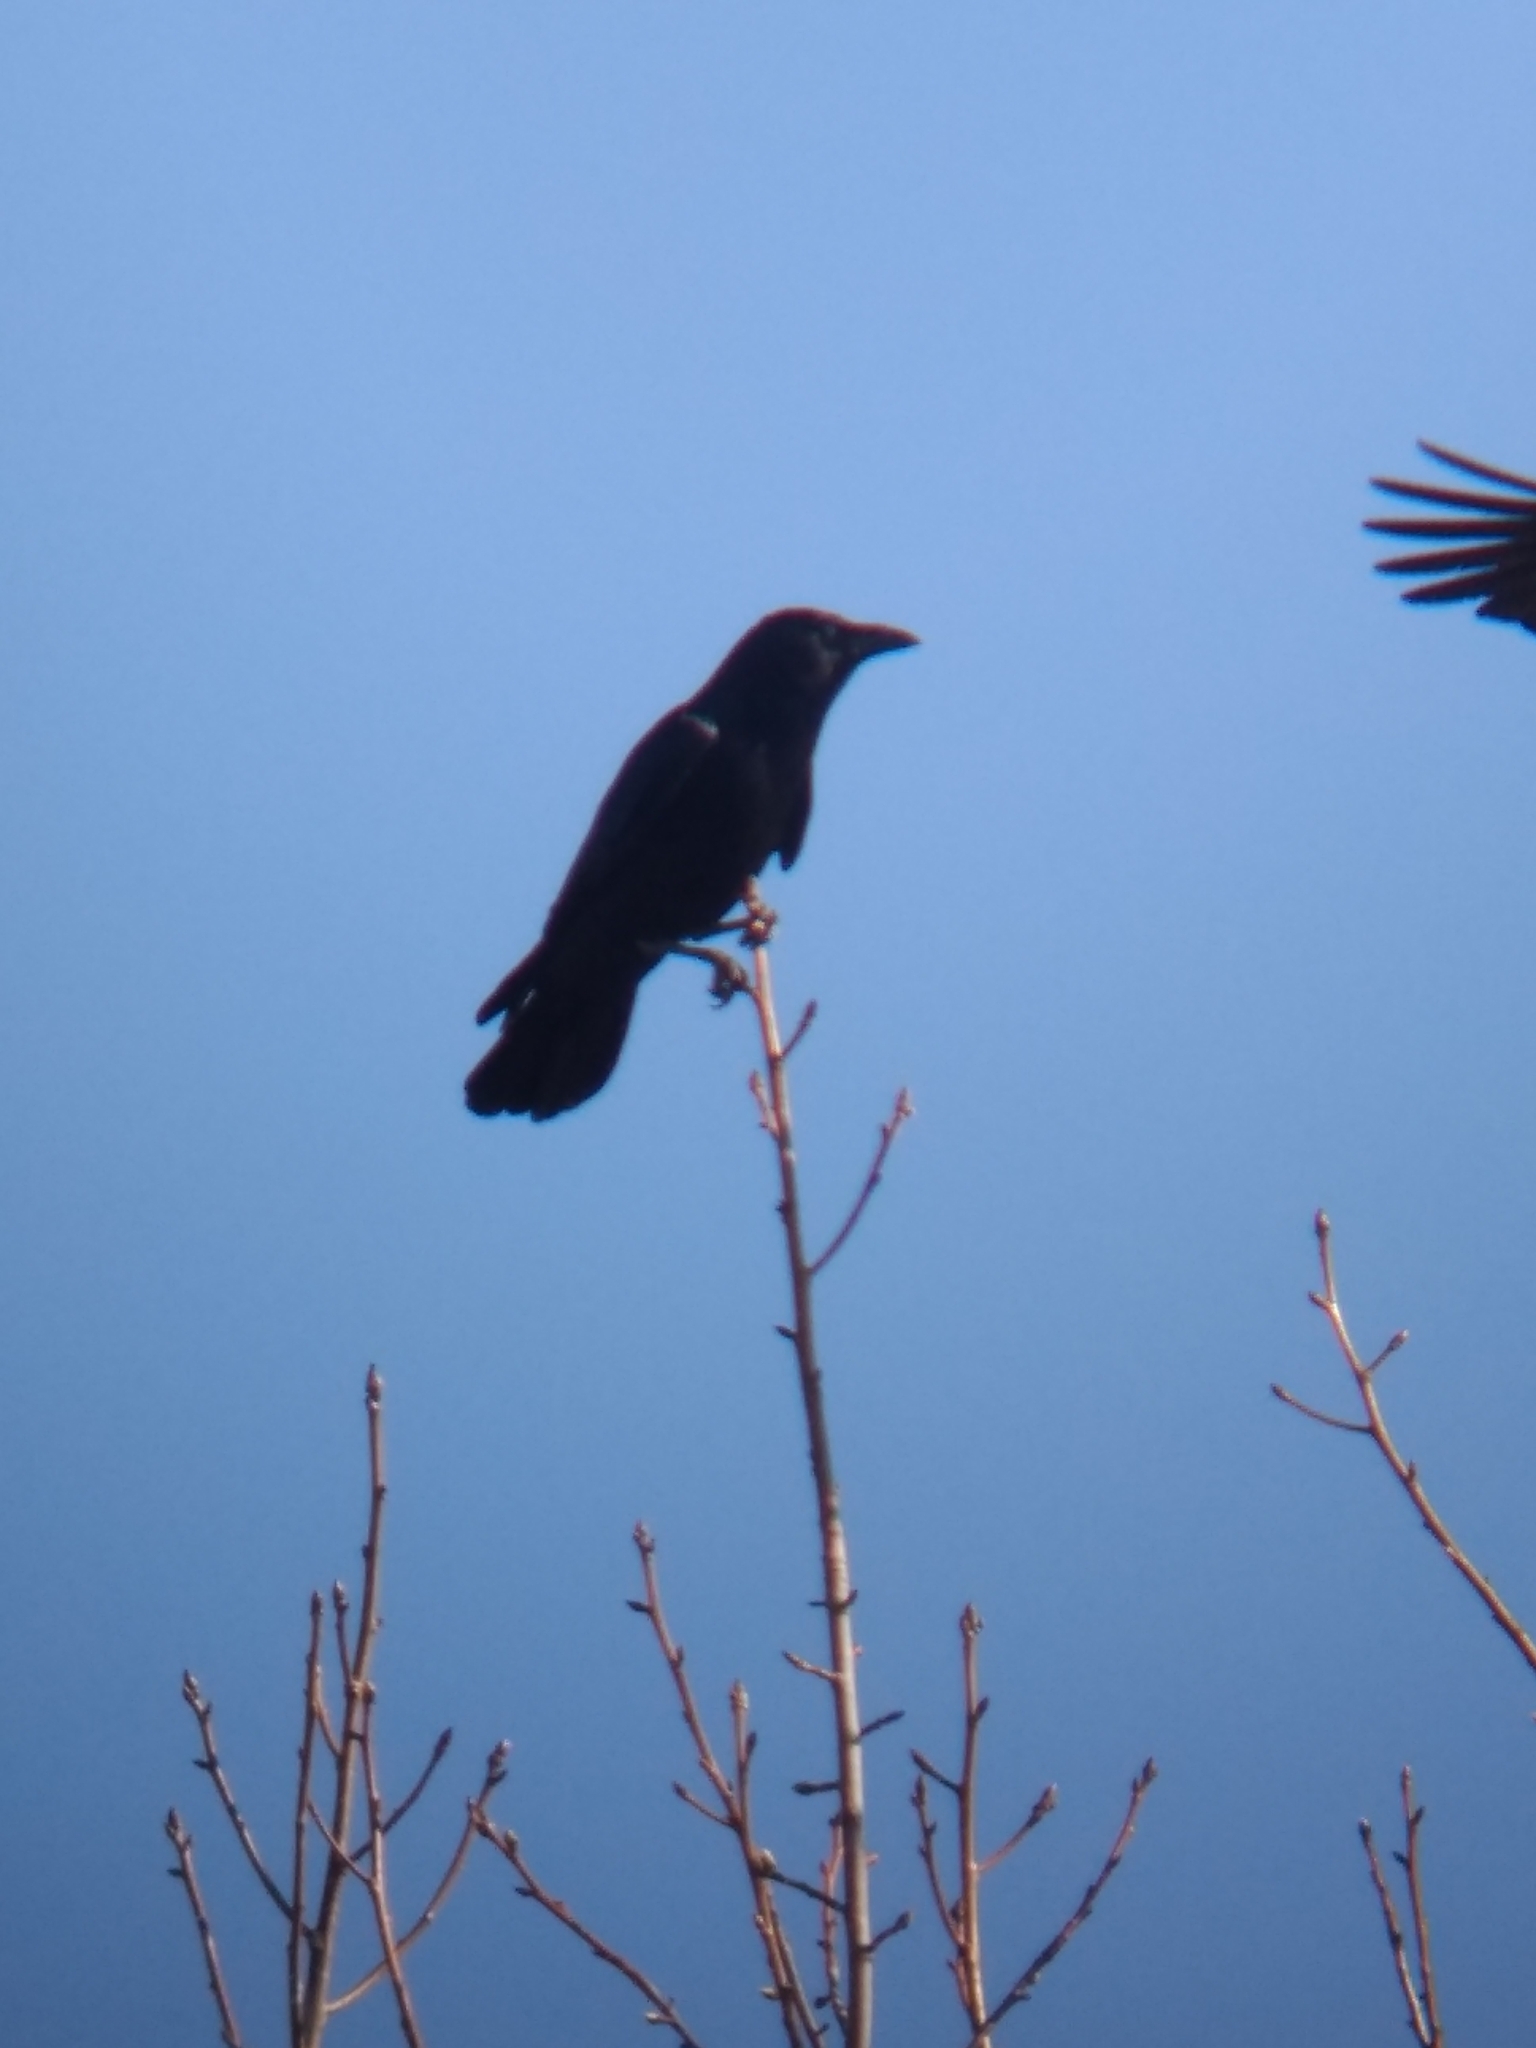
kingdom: Animalia
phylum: Chordata
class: Aves
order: Passeriformes
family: Corvidae
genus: Corvus
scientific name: Corvus brachyrhynchos
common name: American crow
